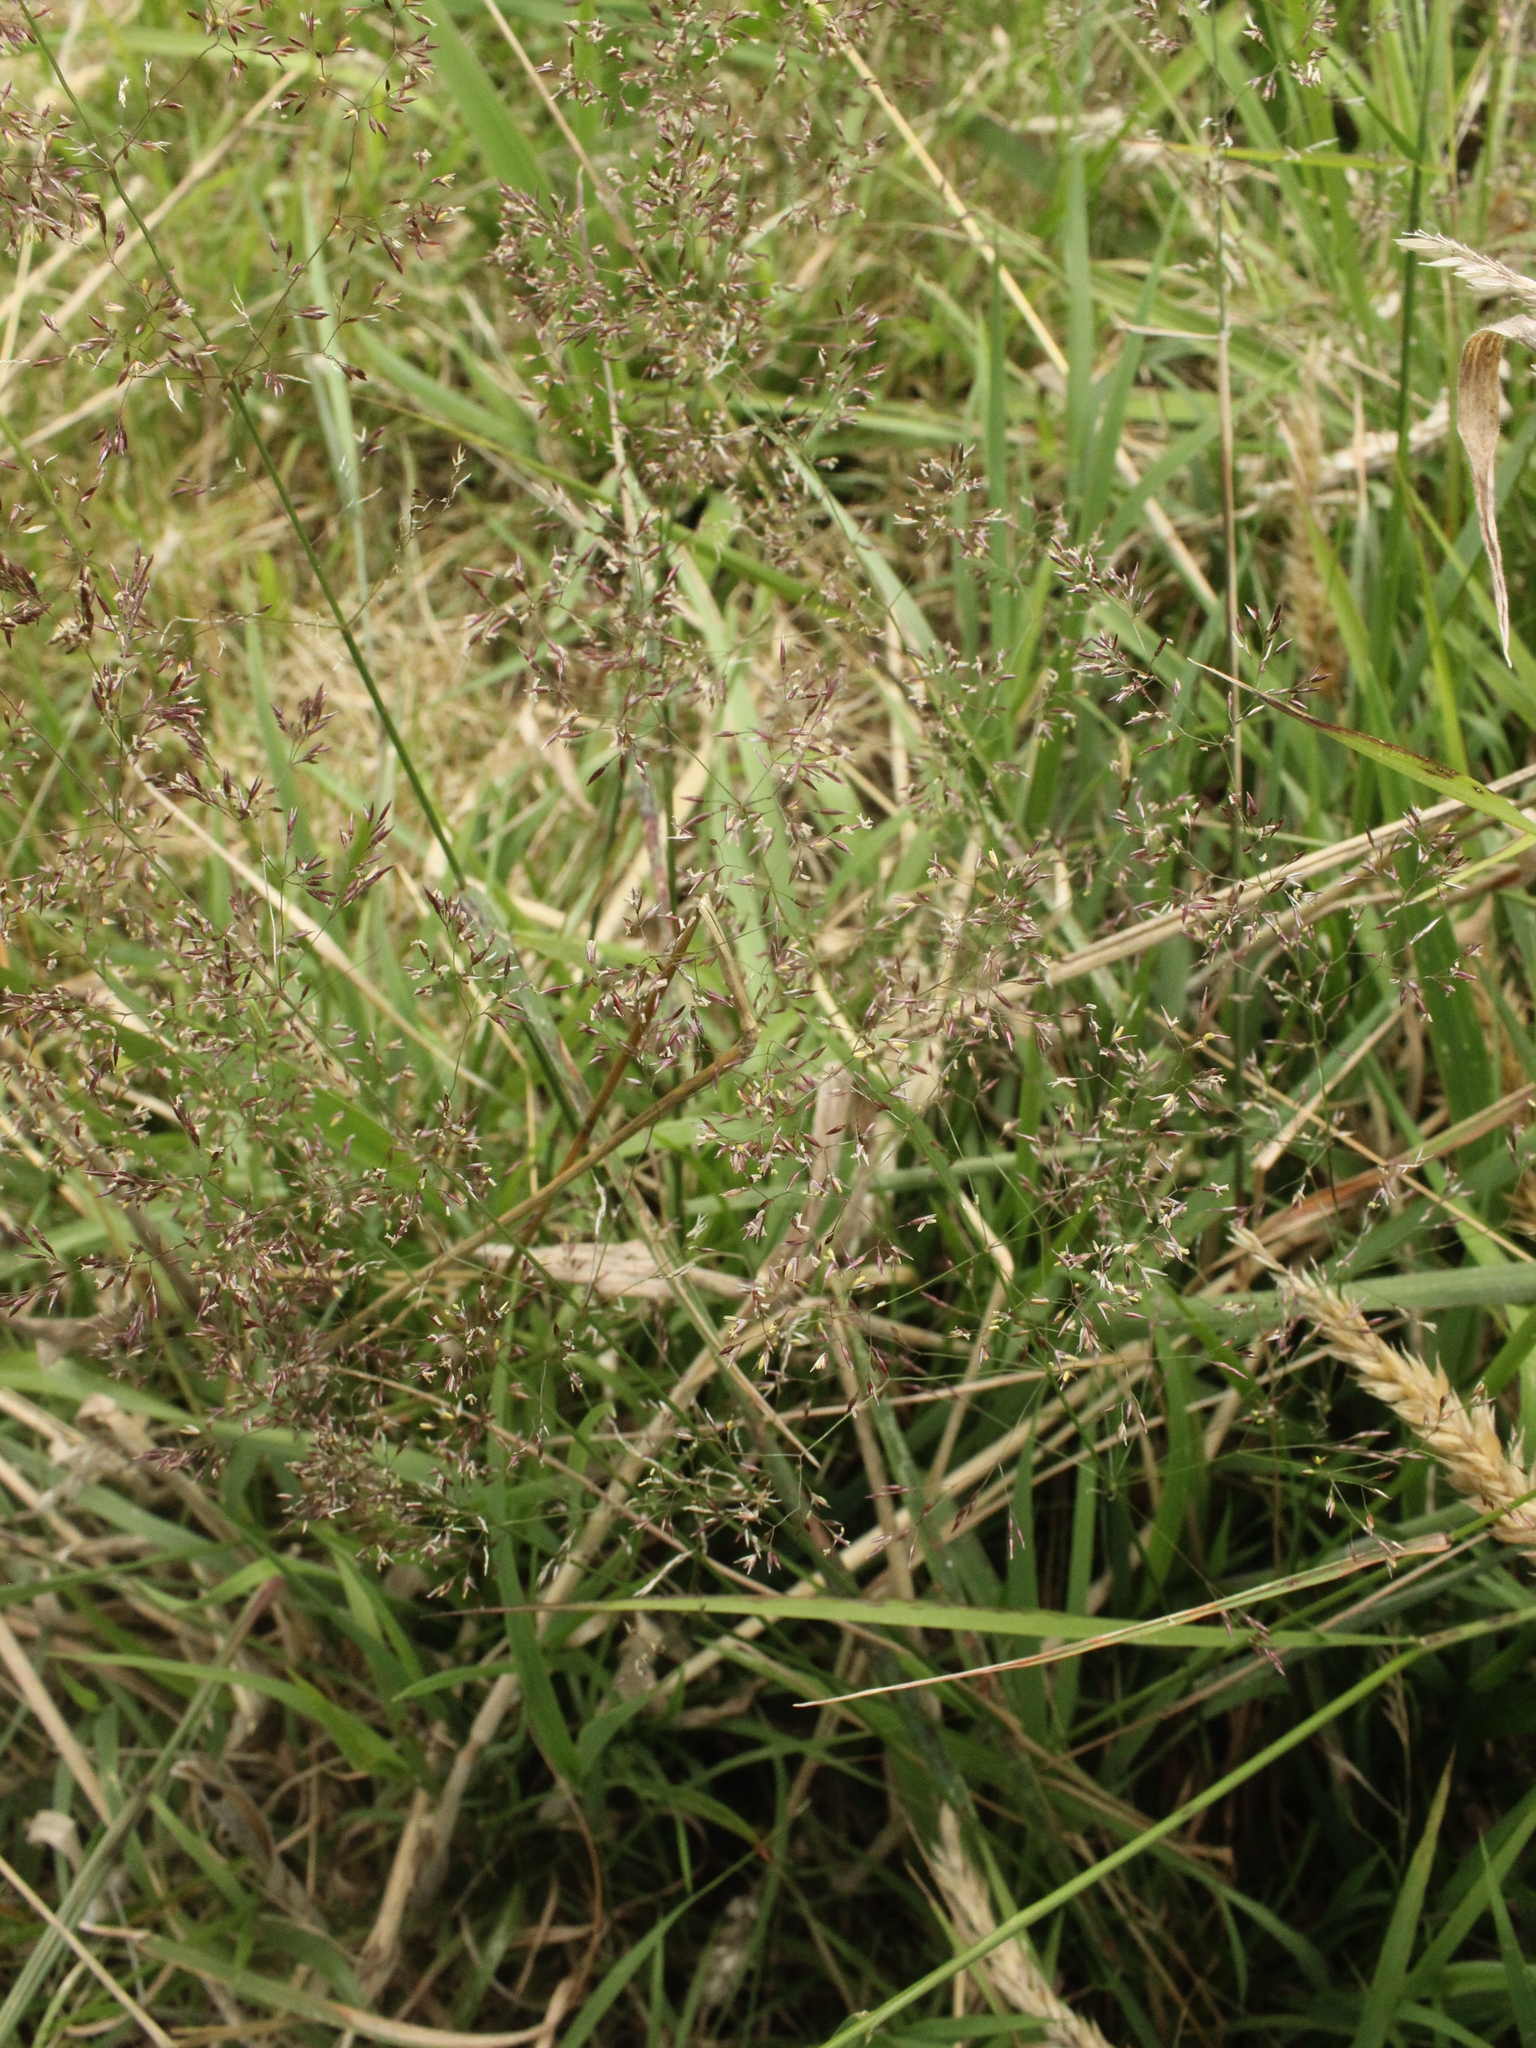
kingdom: Plantae
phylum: Tracheophyta
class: Liliopsida
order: Poales
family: Poaceae
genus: Agrostis
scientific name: Agrostis capillaris
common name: Colonial bentgrass
